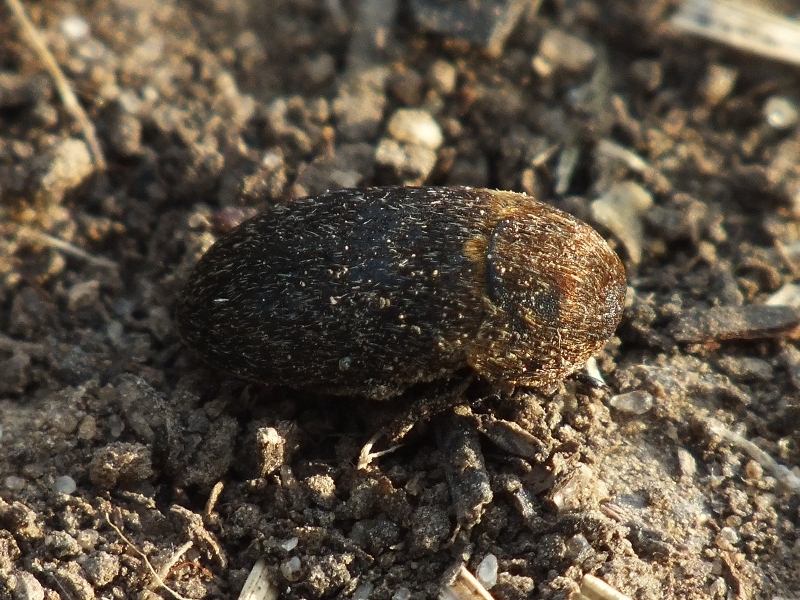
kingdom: Animalia
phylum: Arthropoda
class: Insecta
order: Coleoptera
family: Dermestidae
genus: Dermestes
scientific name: Dermestes laniarius
